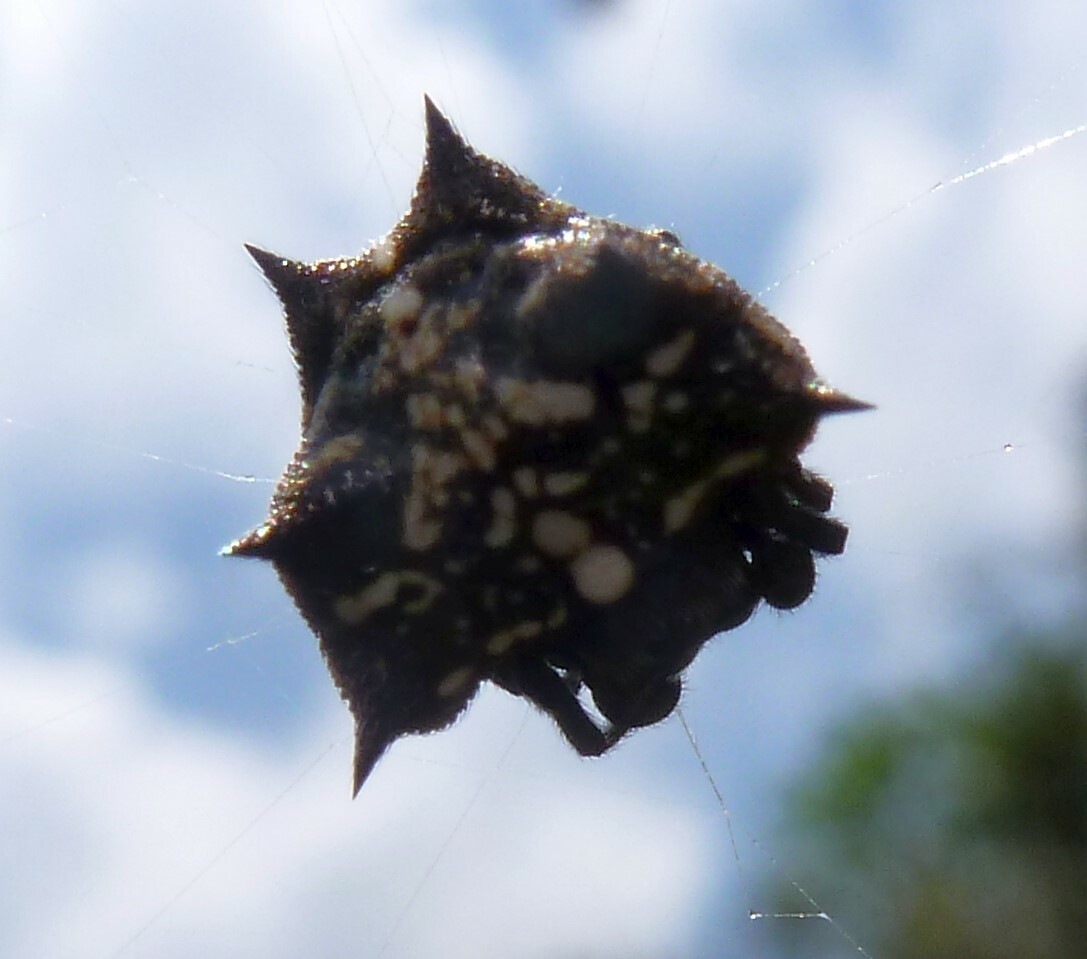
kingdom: Animalia
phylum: Arthropoda
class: Arachnida
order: Araneae
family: Araneidae
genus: Isoxya
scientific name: Isoxya cowani
